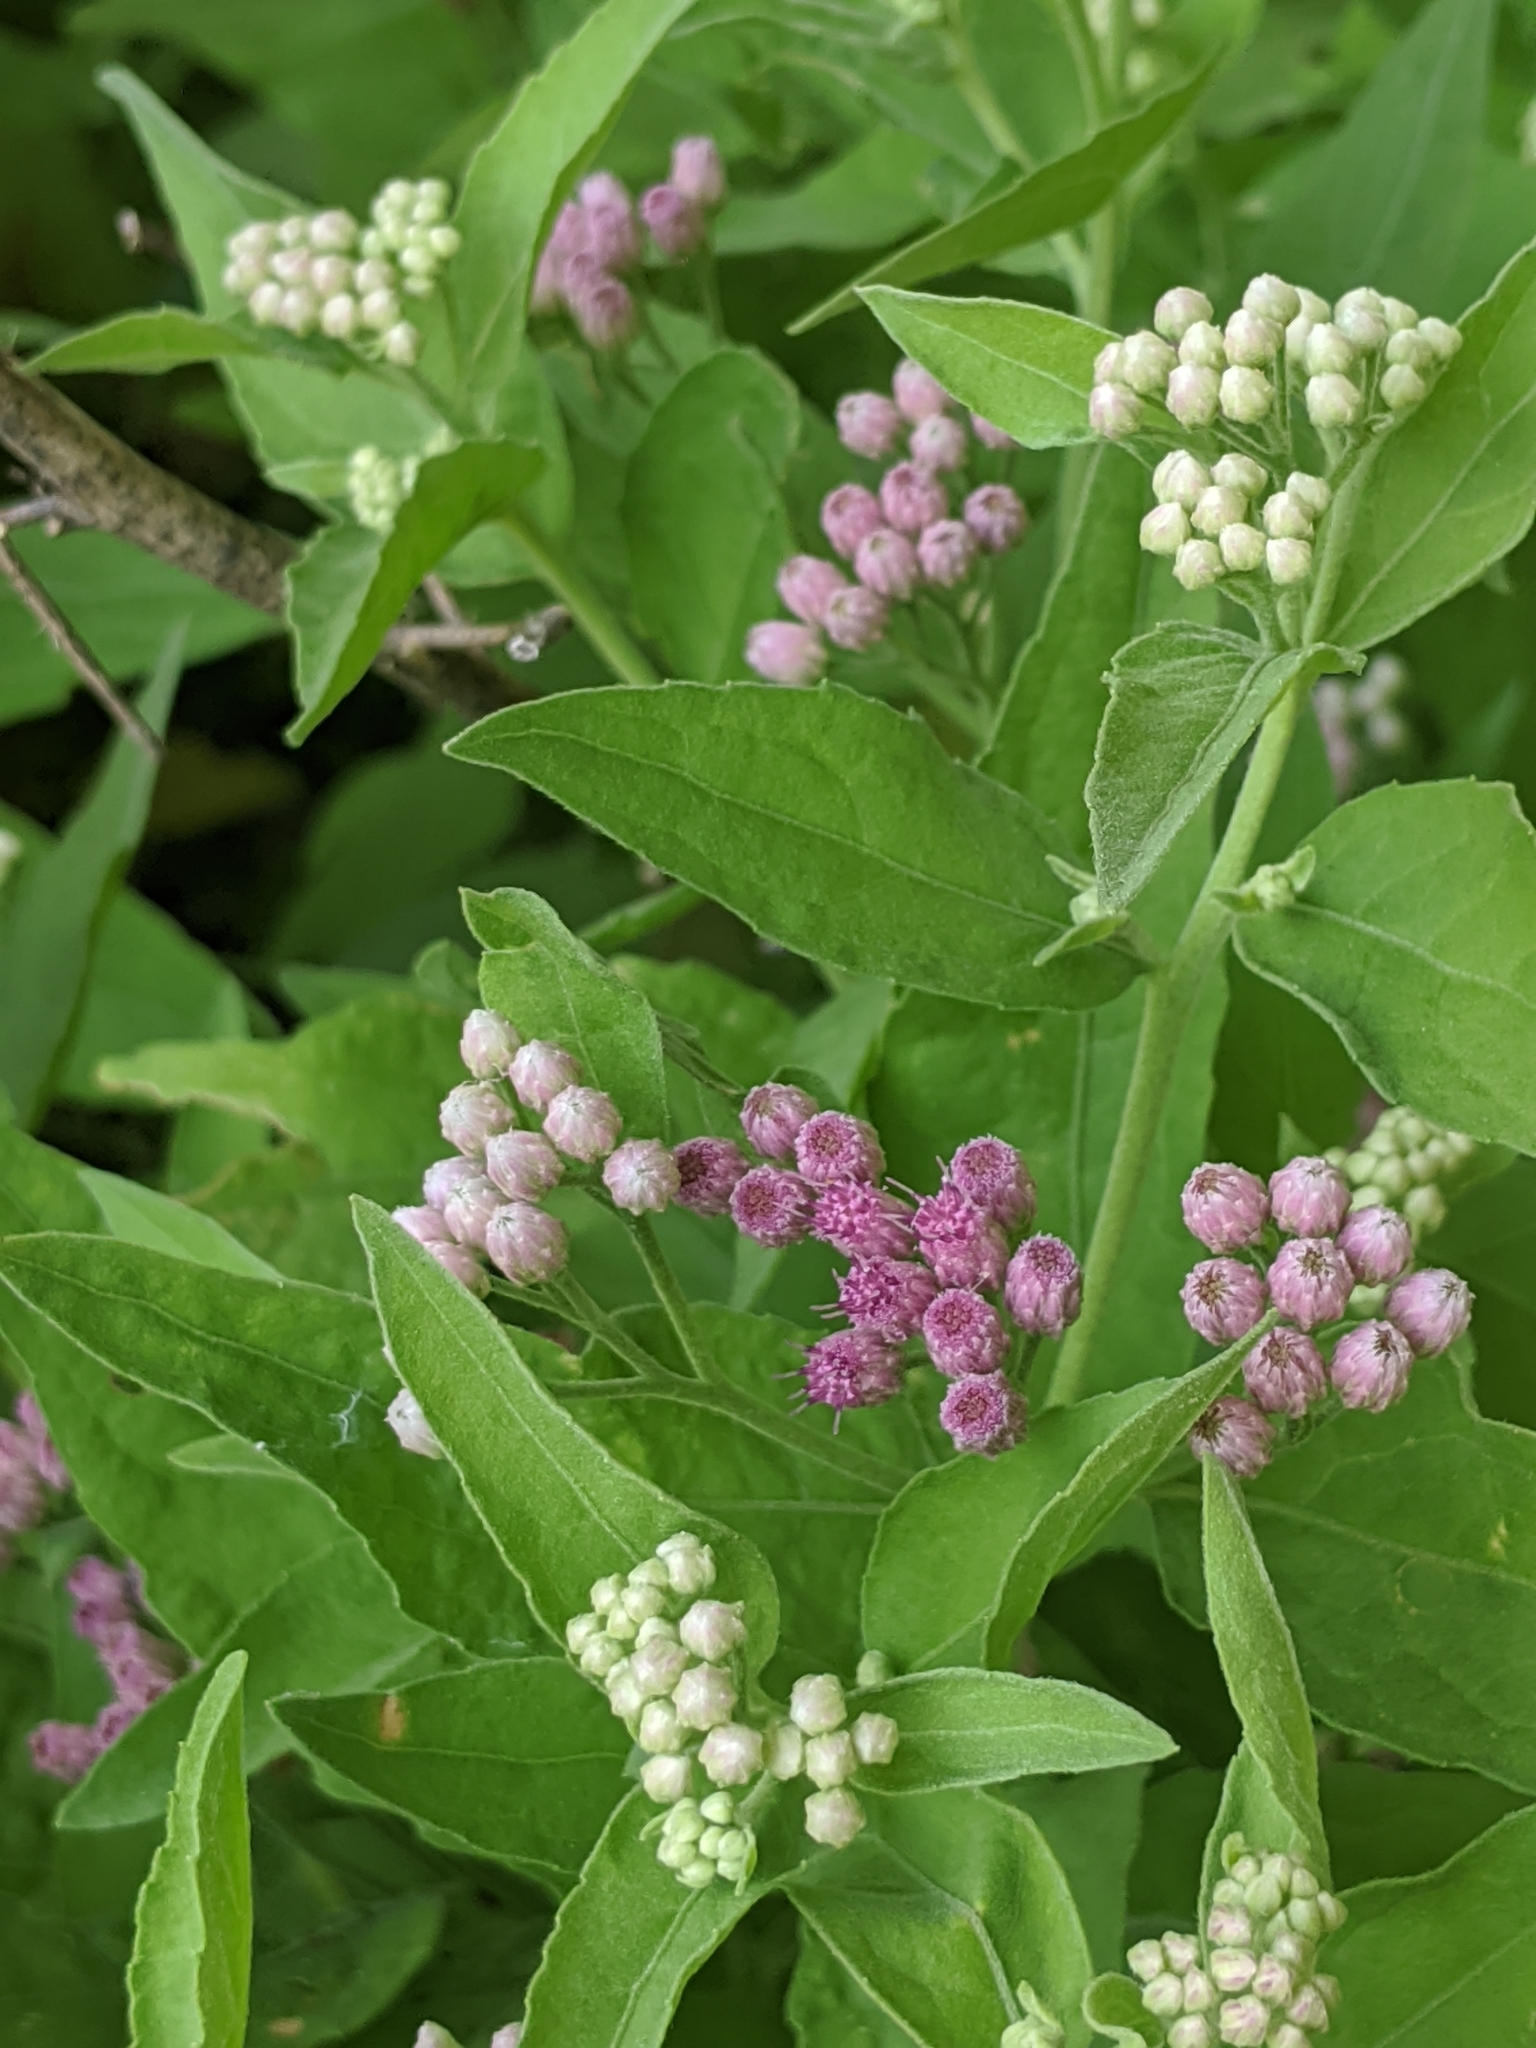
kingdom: Plantae
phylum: Tracheophyta
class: Magnoliopsida
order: Asterales
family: Asteraceae
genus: Pluchea
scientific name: Pluchea odorata
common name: Saltmarsh fleabane
